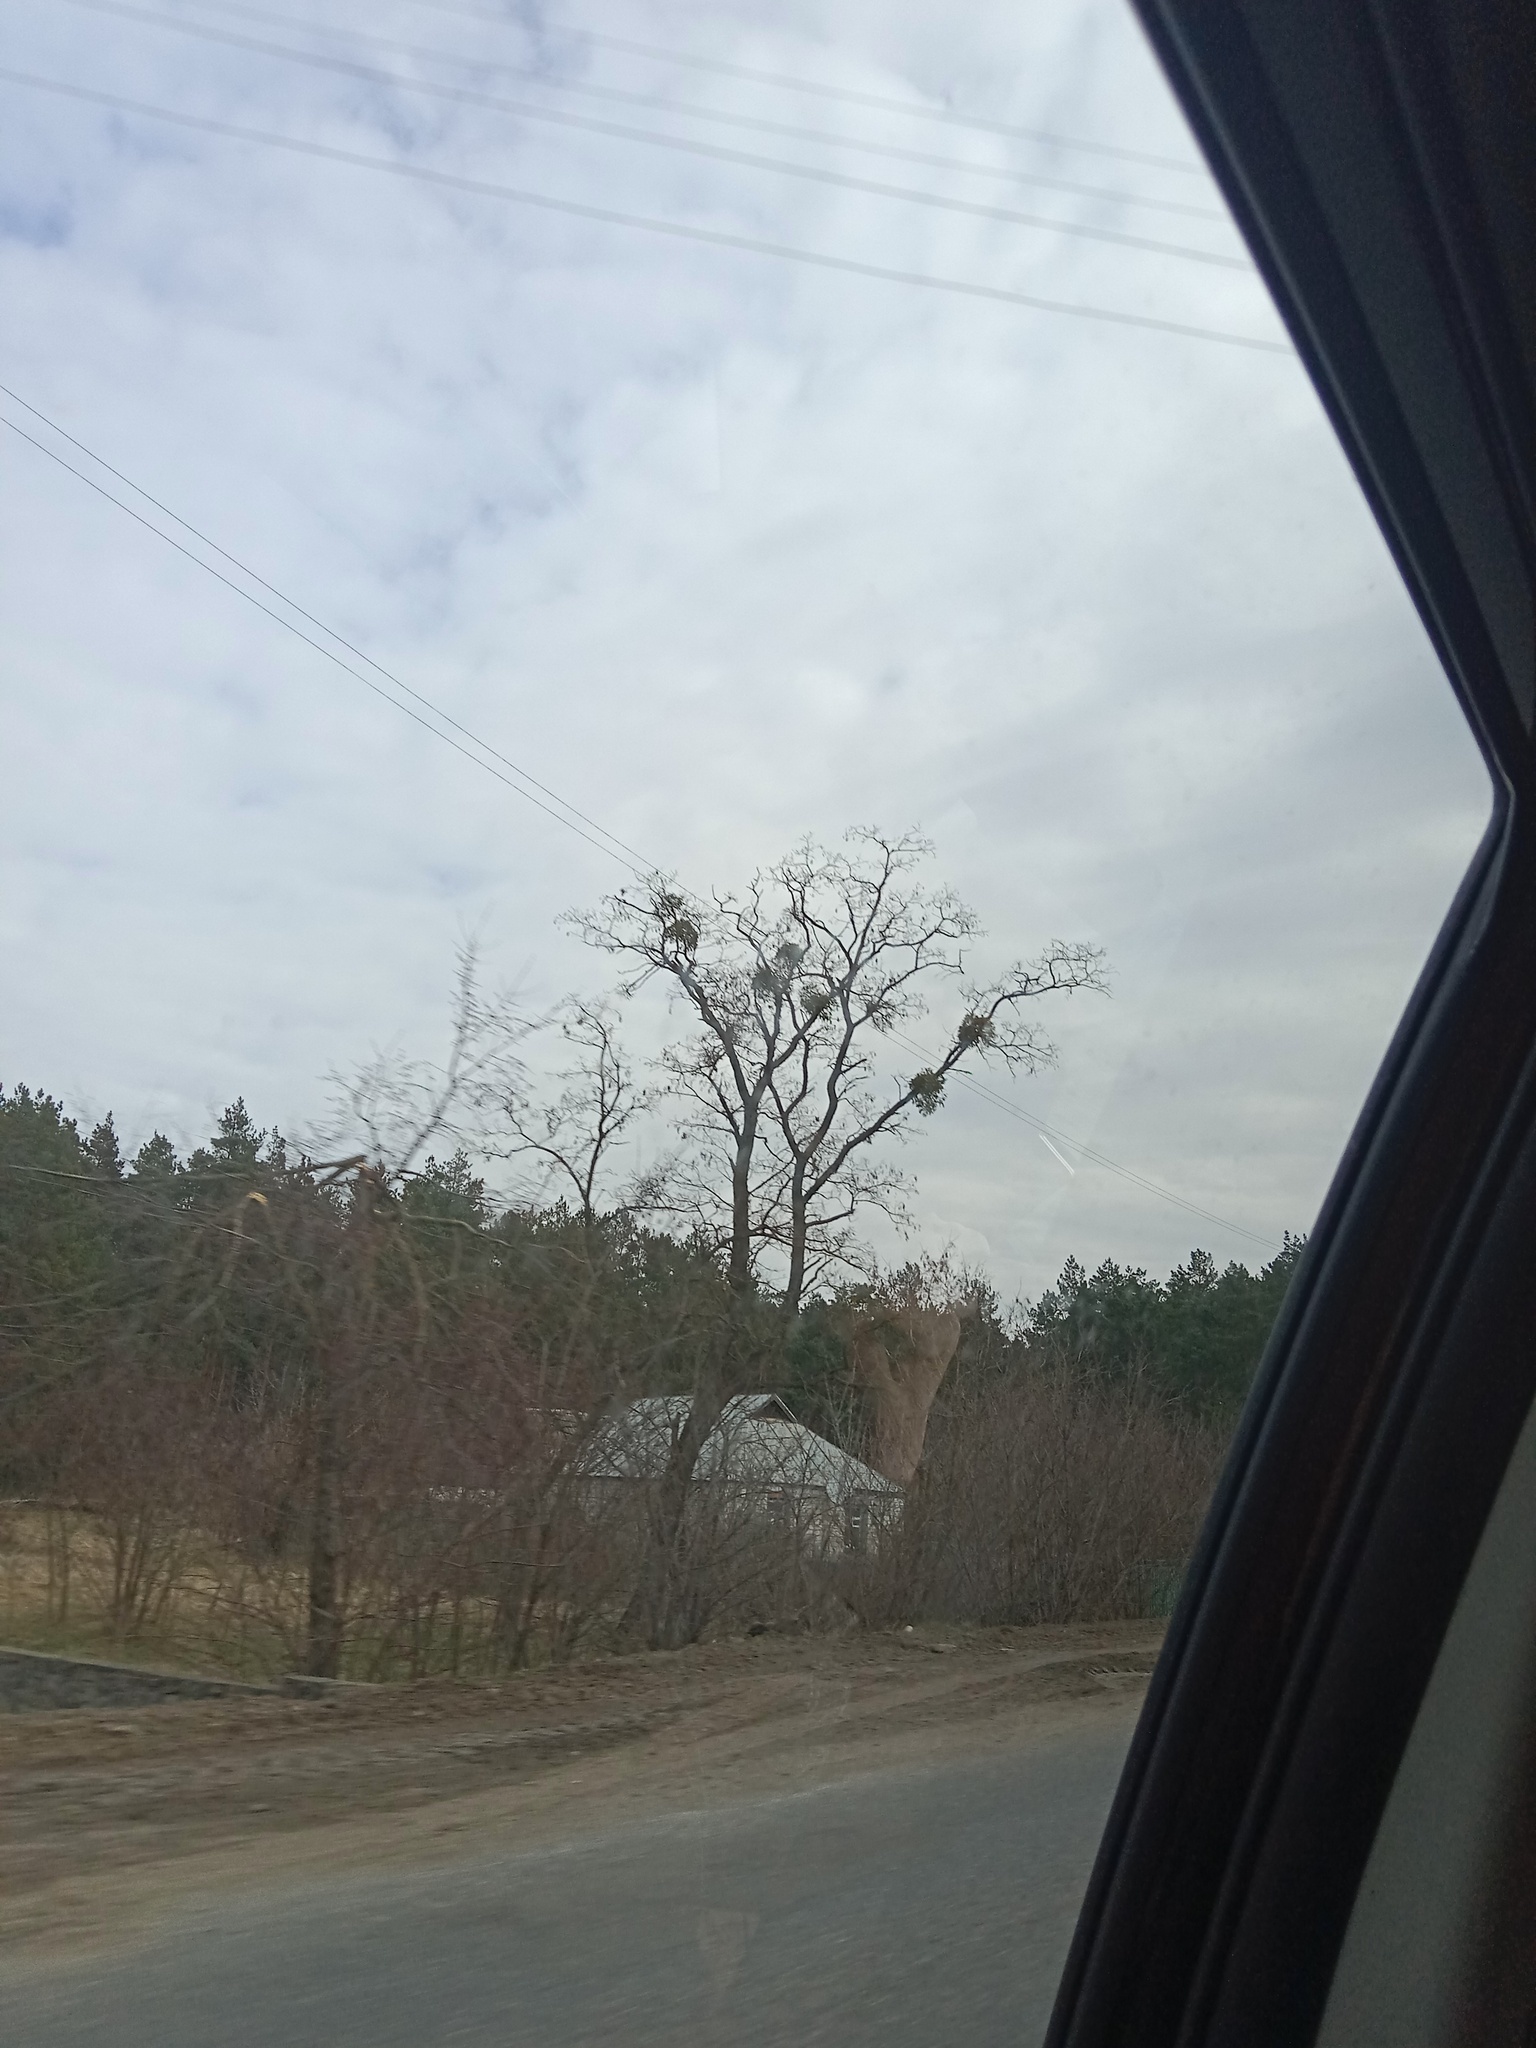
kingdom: Plantae
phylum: Tracheophyta
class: Magnoliopsida
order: Santalales
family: Viscaceae
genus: Viscum
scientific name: Viscum album
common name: Mistletoe
